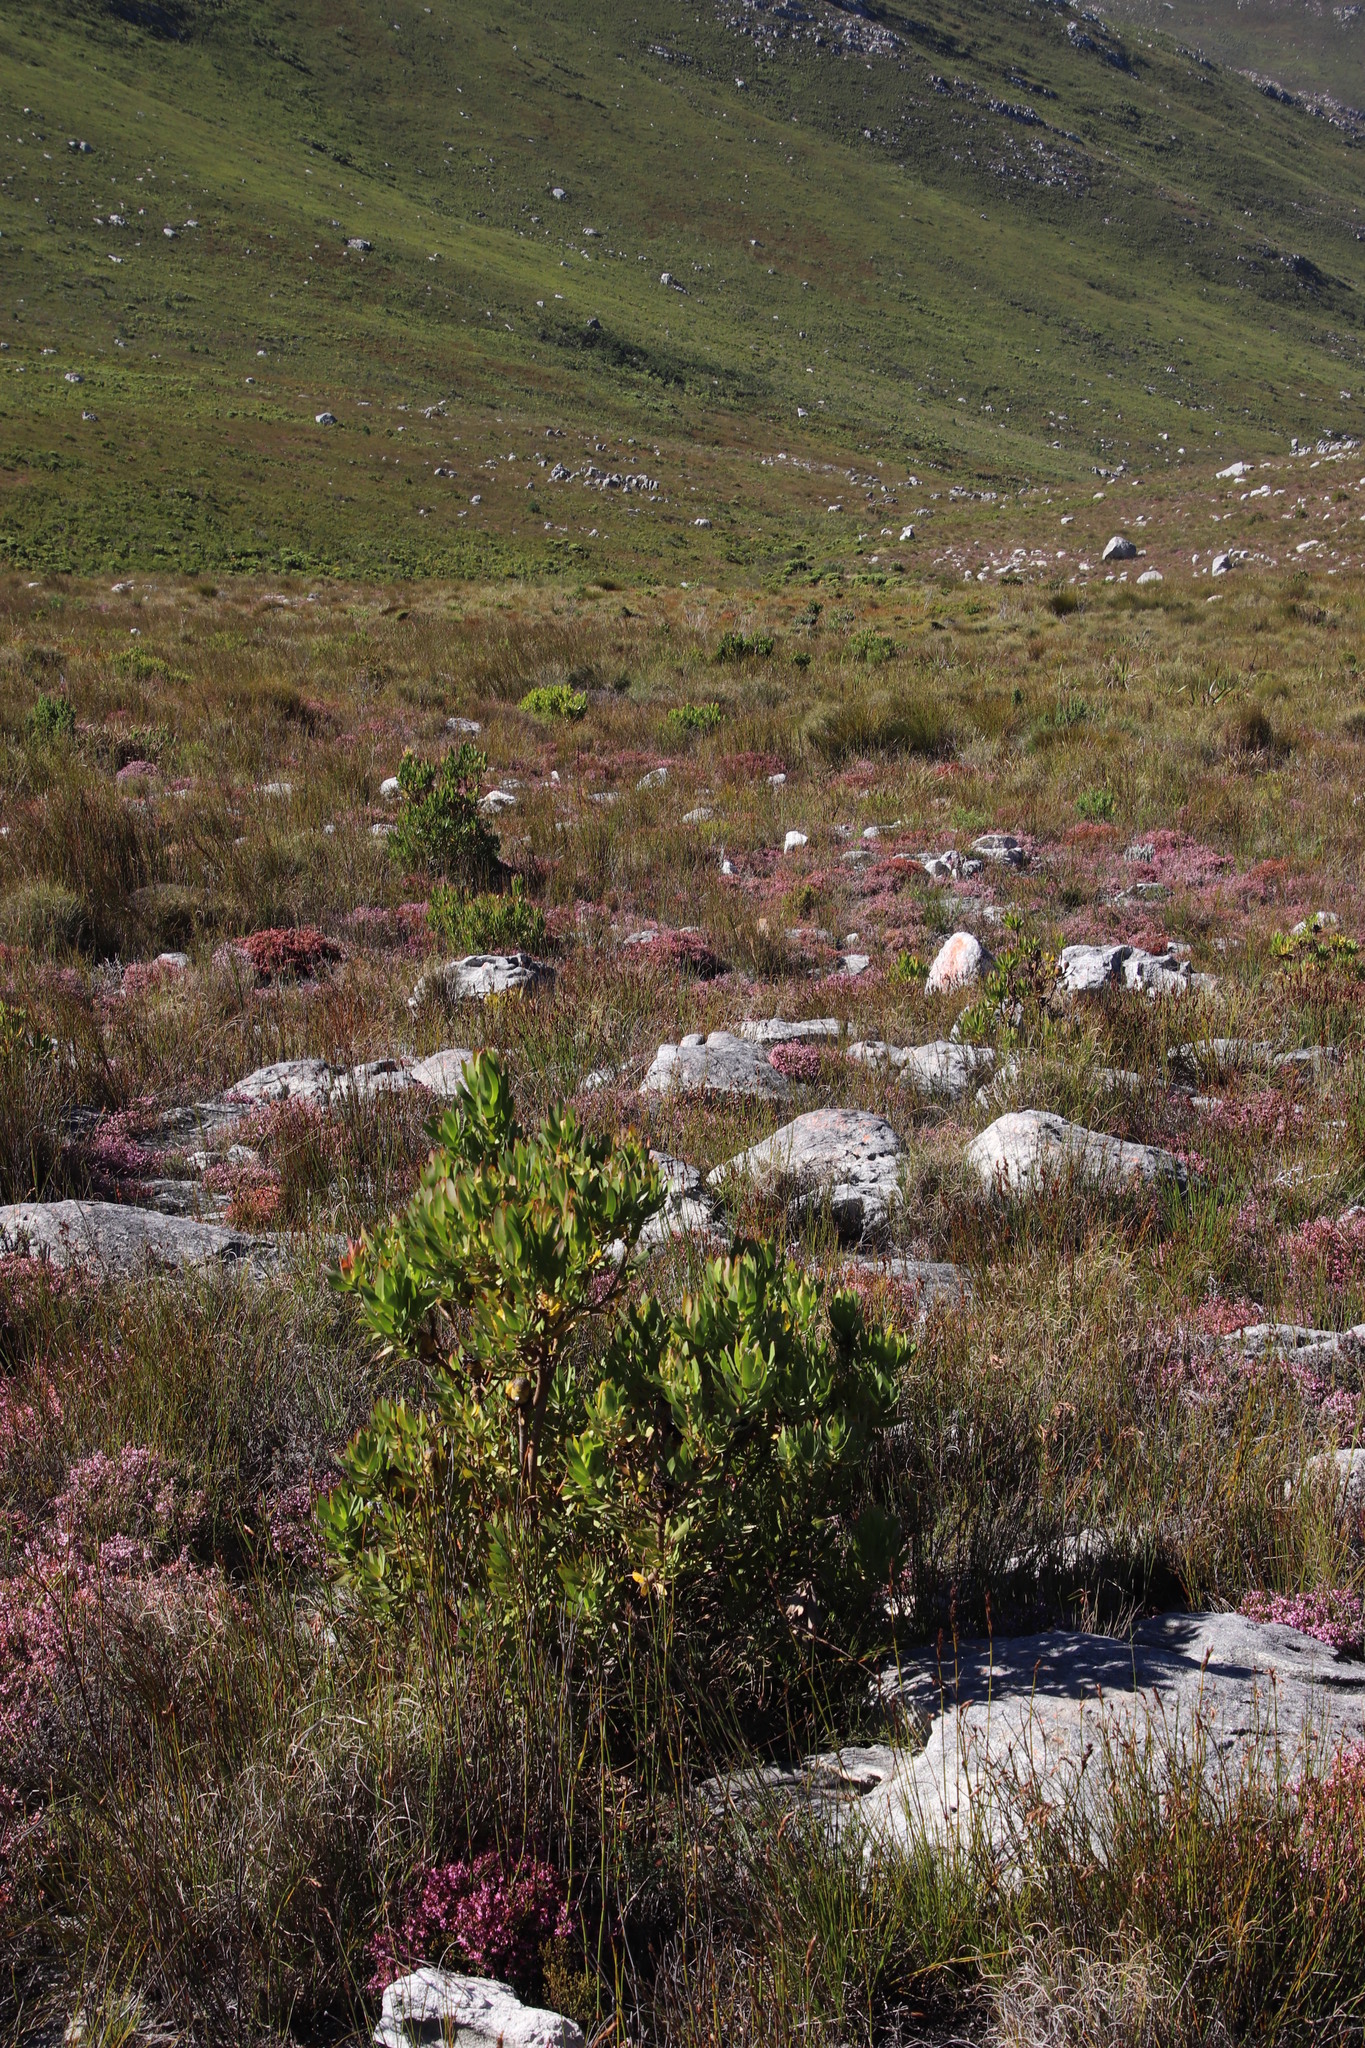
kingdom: Plantae
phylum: Tracheophyta
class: Magnoliopsida
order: Proteales
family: Proteaceae
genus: Leucadendron
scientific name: Leucadendron gandogeri
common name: Broad-leaf conebush
